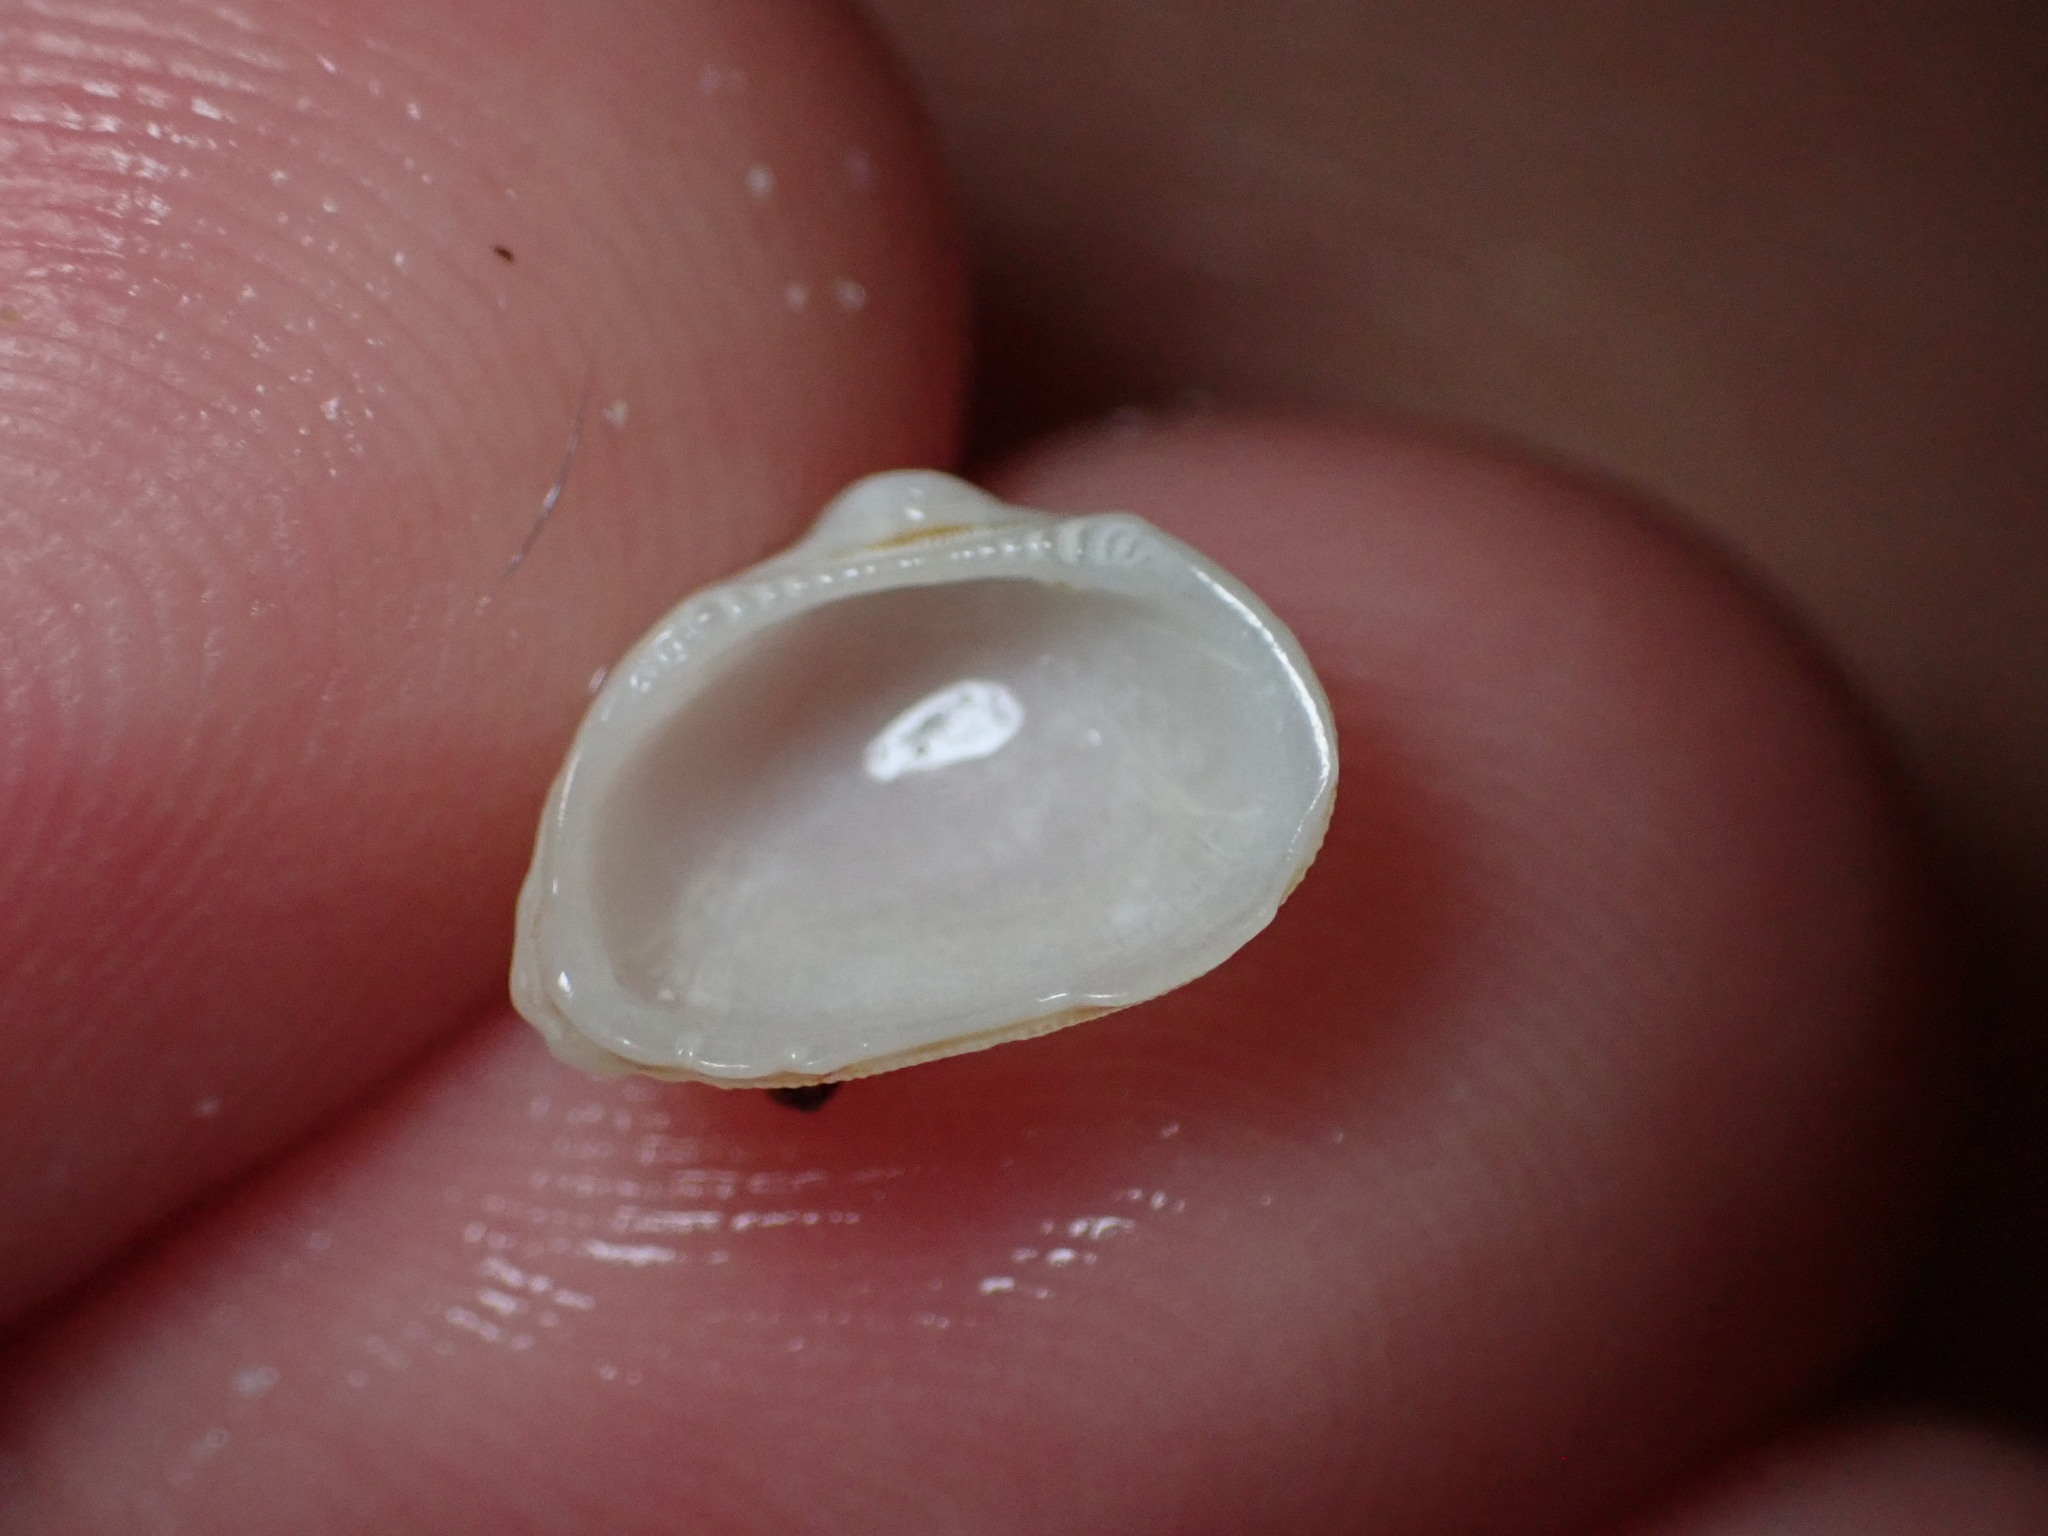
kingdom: Animalia
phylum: Mollusca
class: Bivalvia
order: Arcida
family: Noetiidae
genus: Striarca
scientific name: Striarca lactea
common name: Milky-white ark
